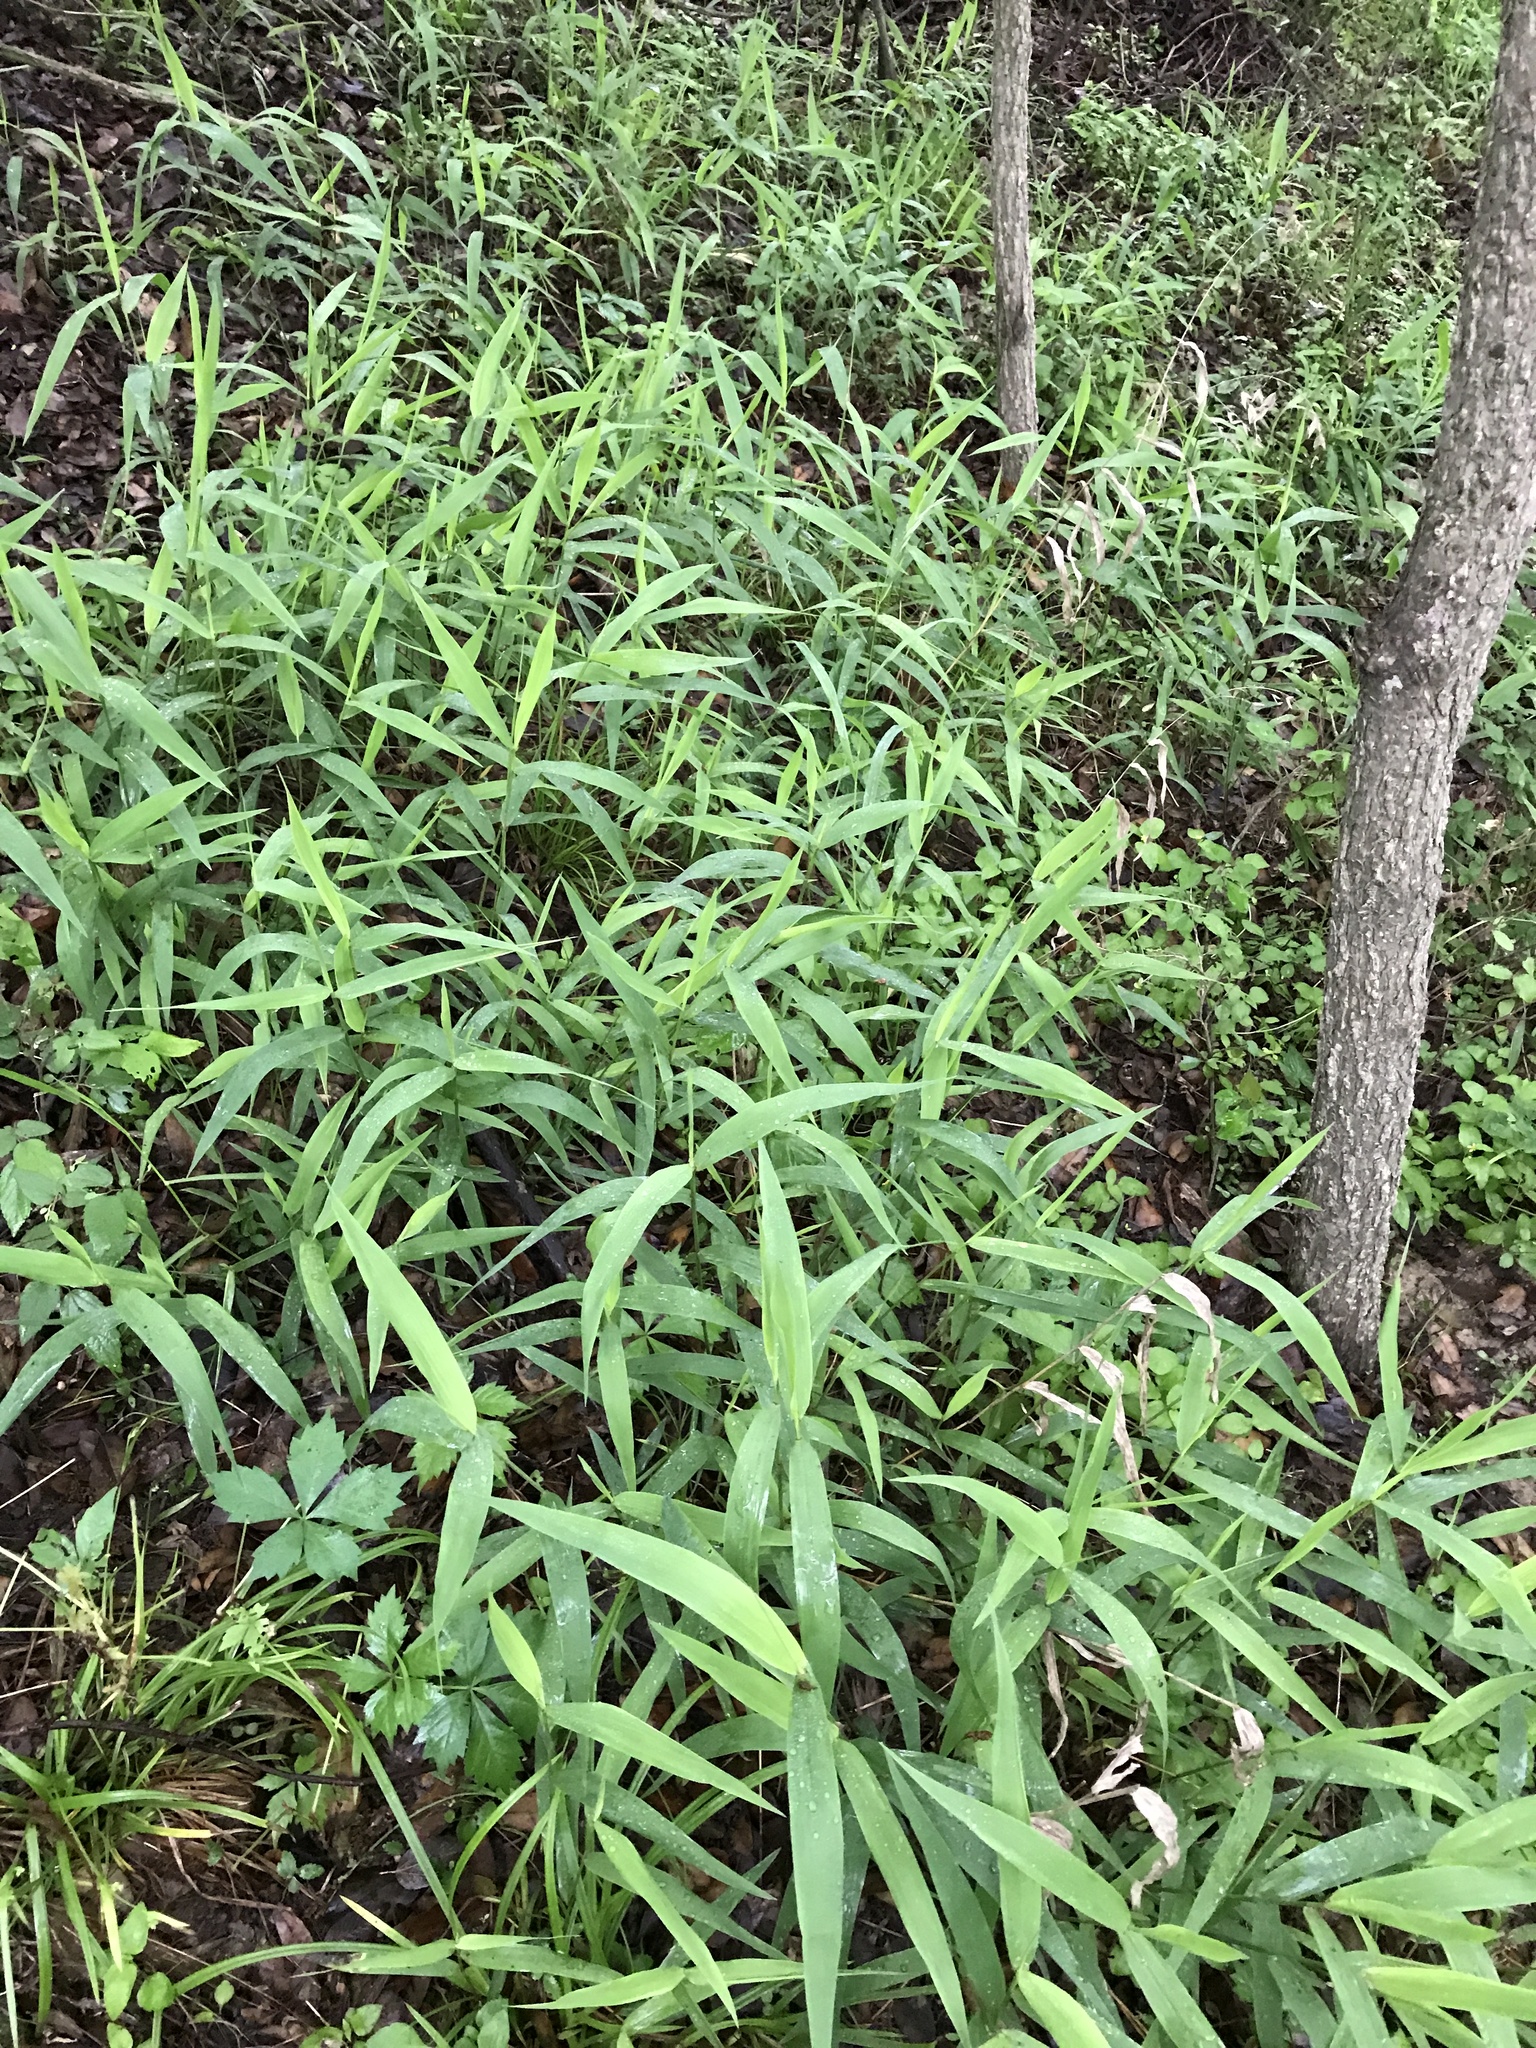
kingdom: Plantae
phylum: Tracheophyta
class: Liliopsida
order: Poales
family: Poaceae
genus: Chasmanthium
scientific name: Chasmanthium latifolium
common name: Broad-leaved chasmanthium
